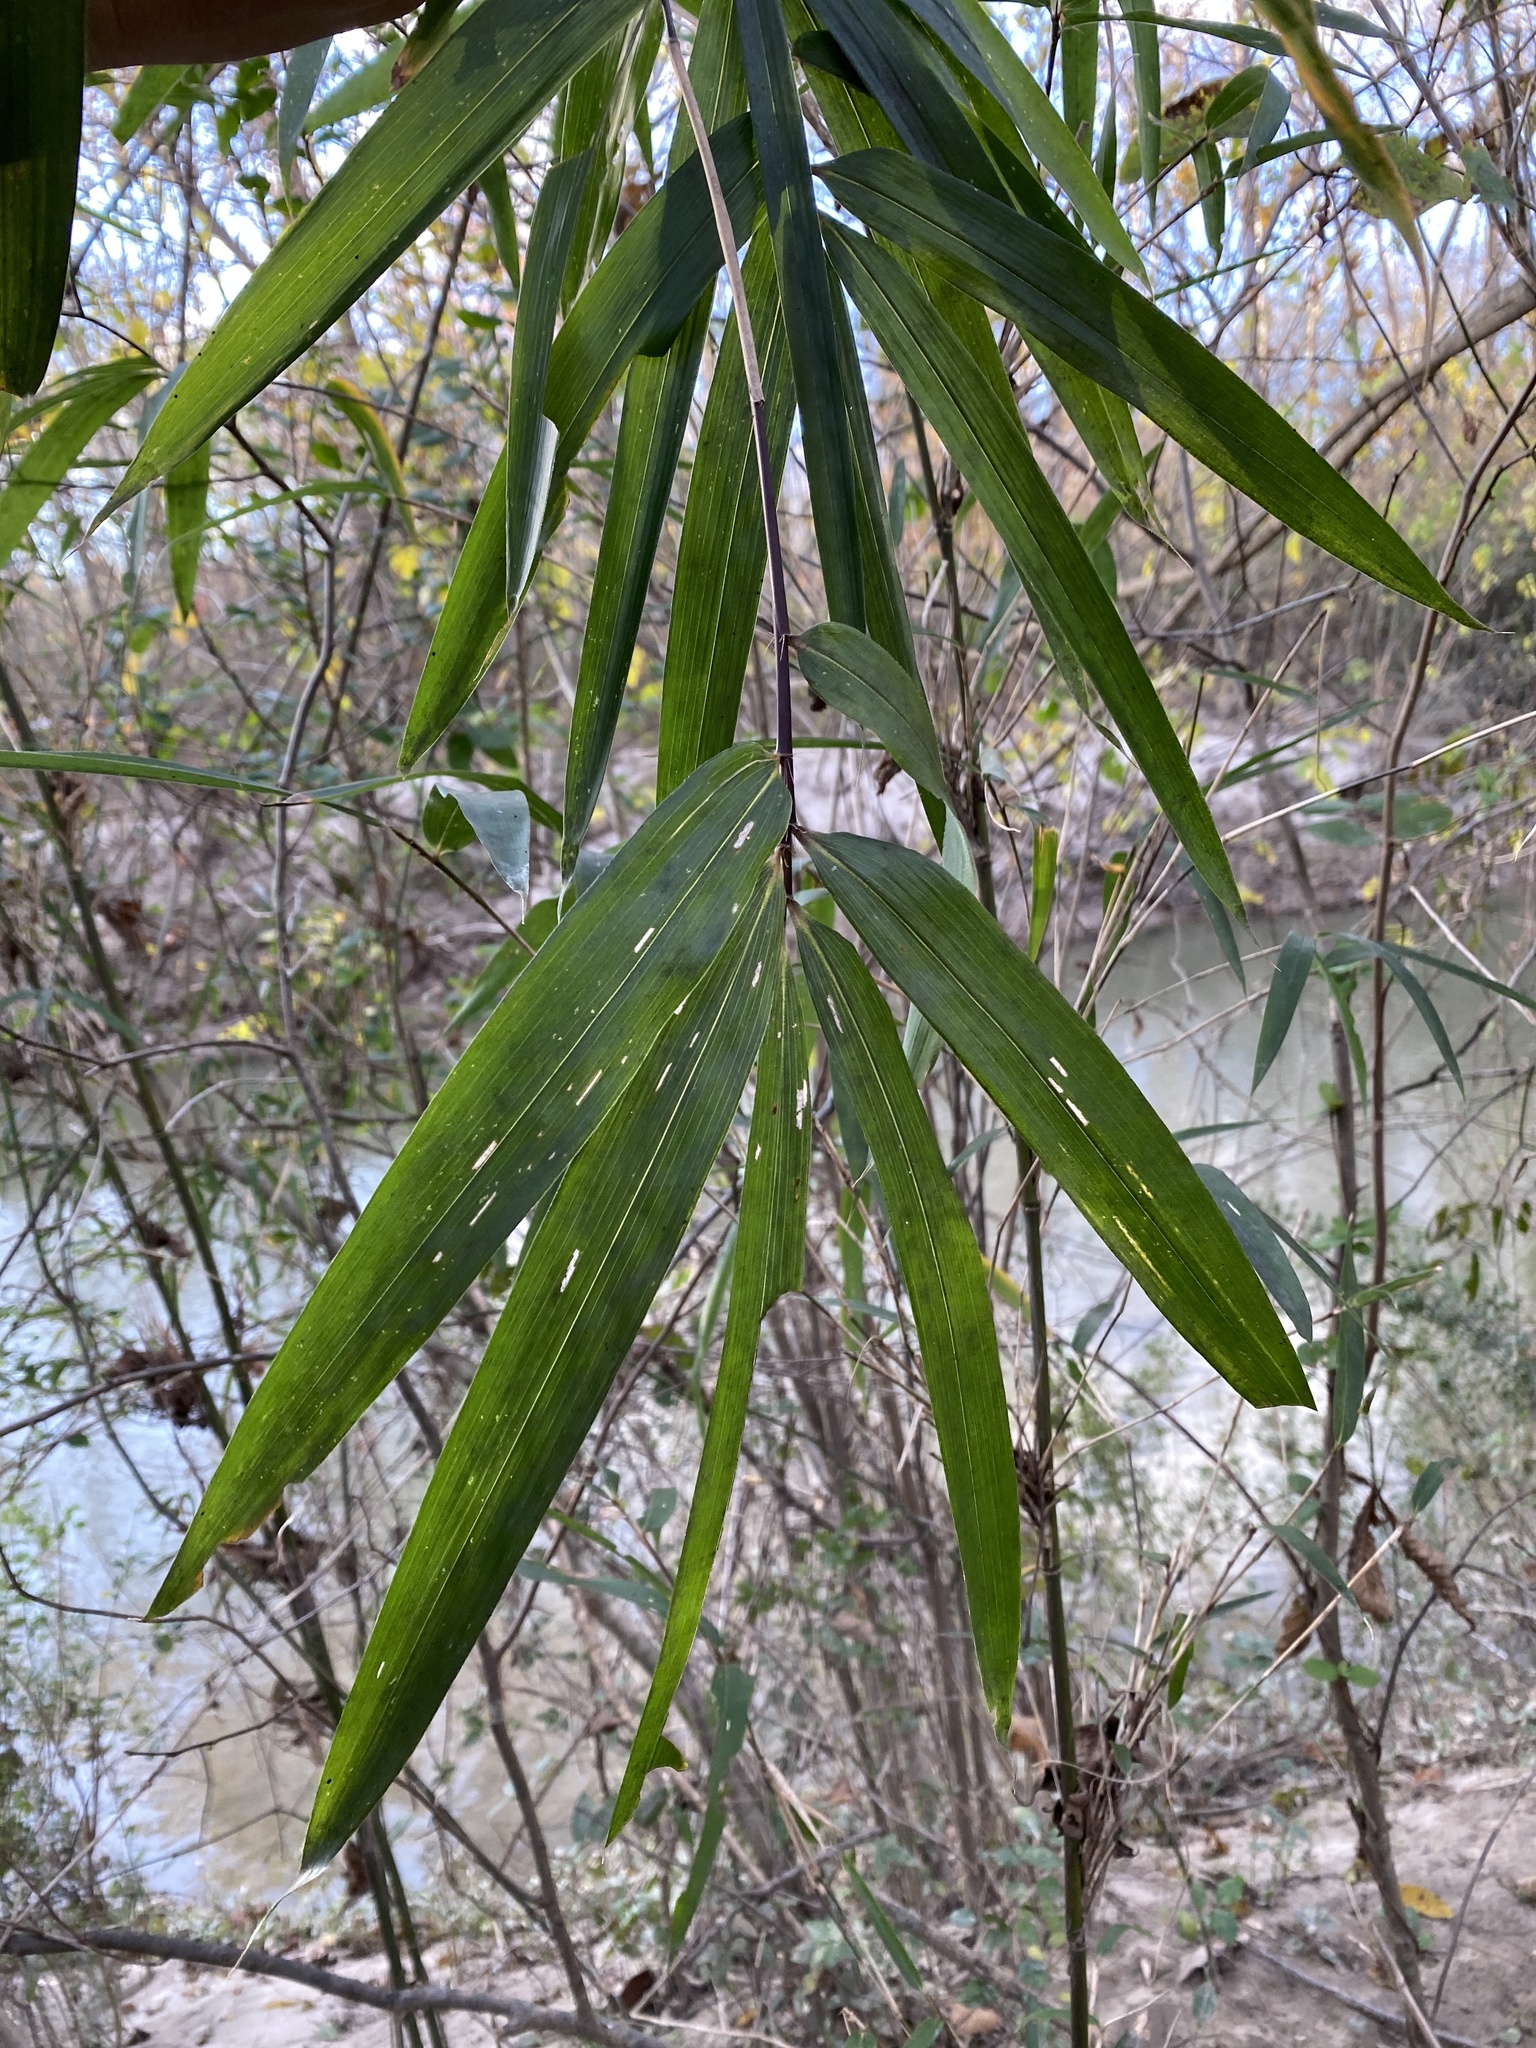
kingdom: Plantae
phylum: Tracheophyta
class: Liliopsida
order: Poales
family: Poaceae
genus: Arundinaria
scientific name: Arundinaria tecta
